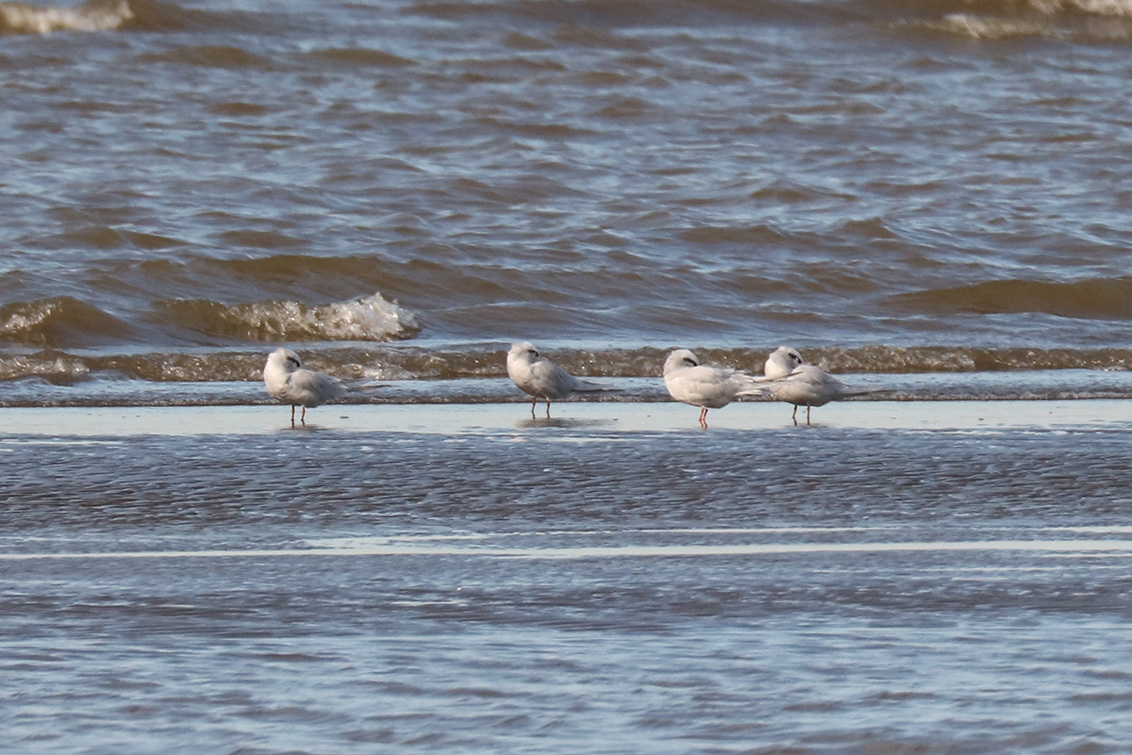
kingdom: Animalia
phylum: Chordata
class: Aves
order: Charadriiformes
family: Laridae
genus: Sterna
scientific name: Sterna trudeaui
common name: Snowy-crowned tern
